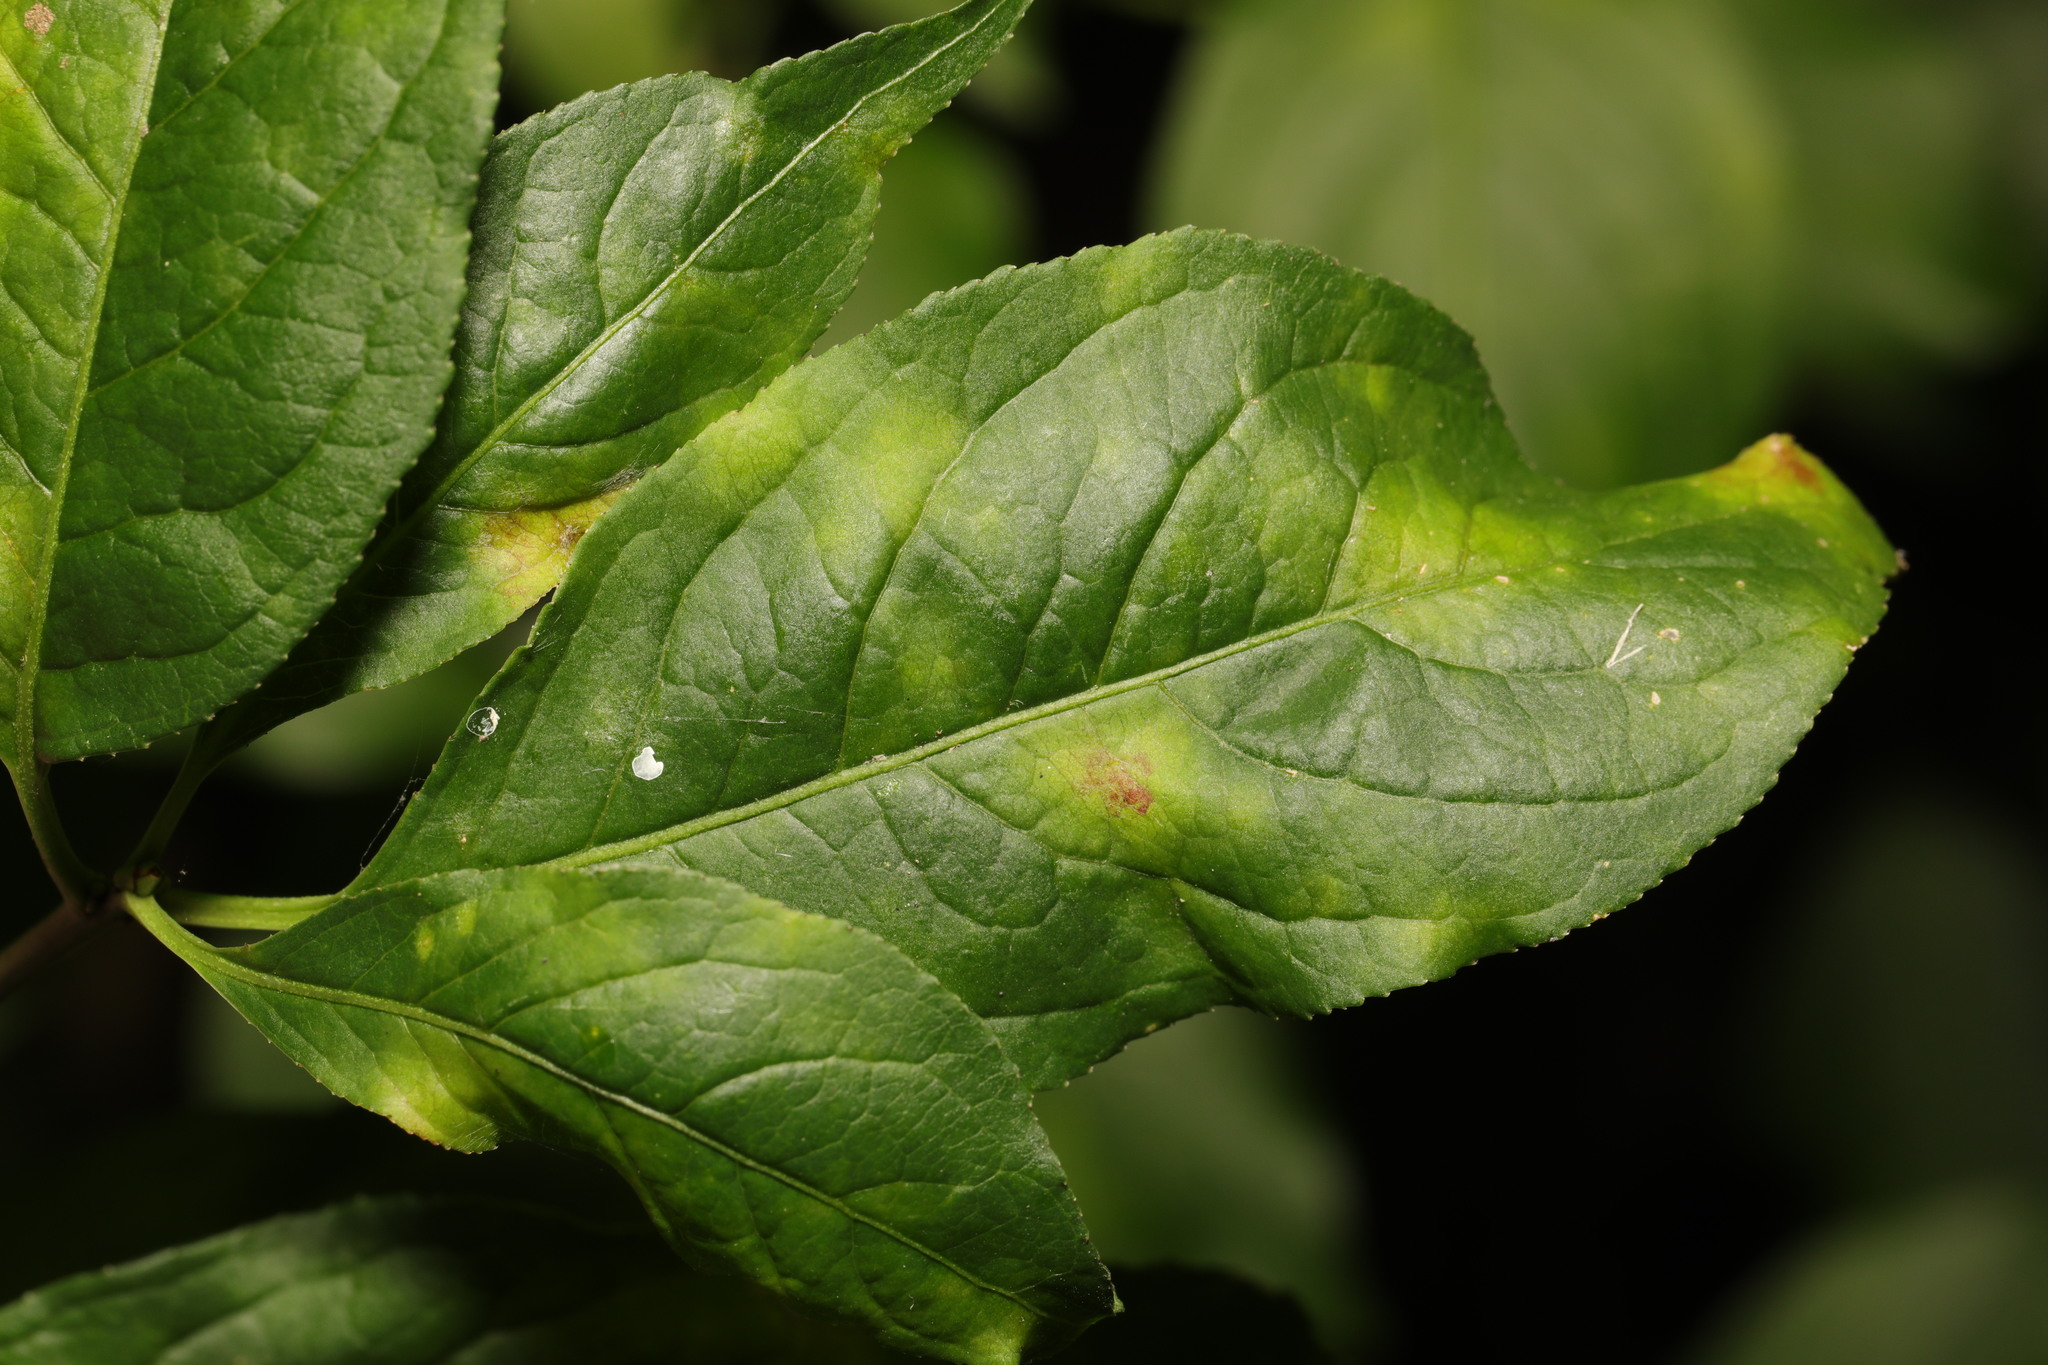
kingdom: Fungi
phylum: Ascomycota
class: Leotiomycetes
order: Helotiales
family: Erysiphaceae
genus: Erysiphe
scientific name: Erysiphe euonymi
